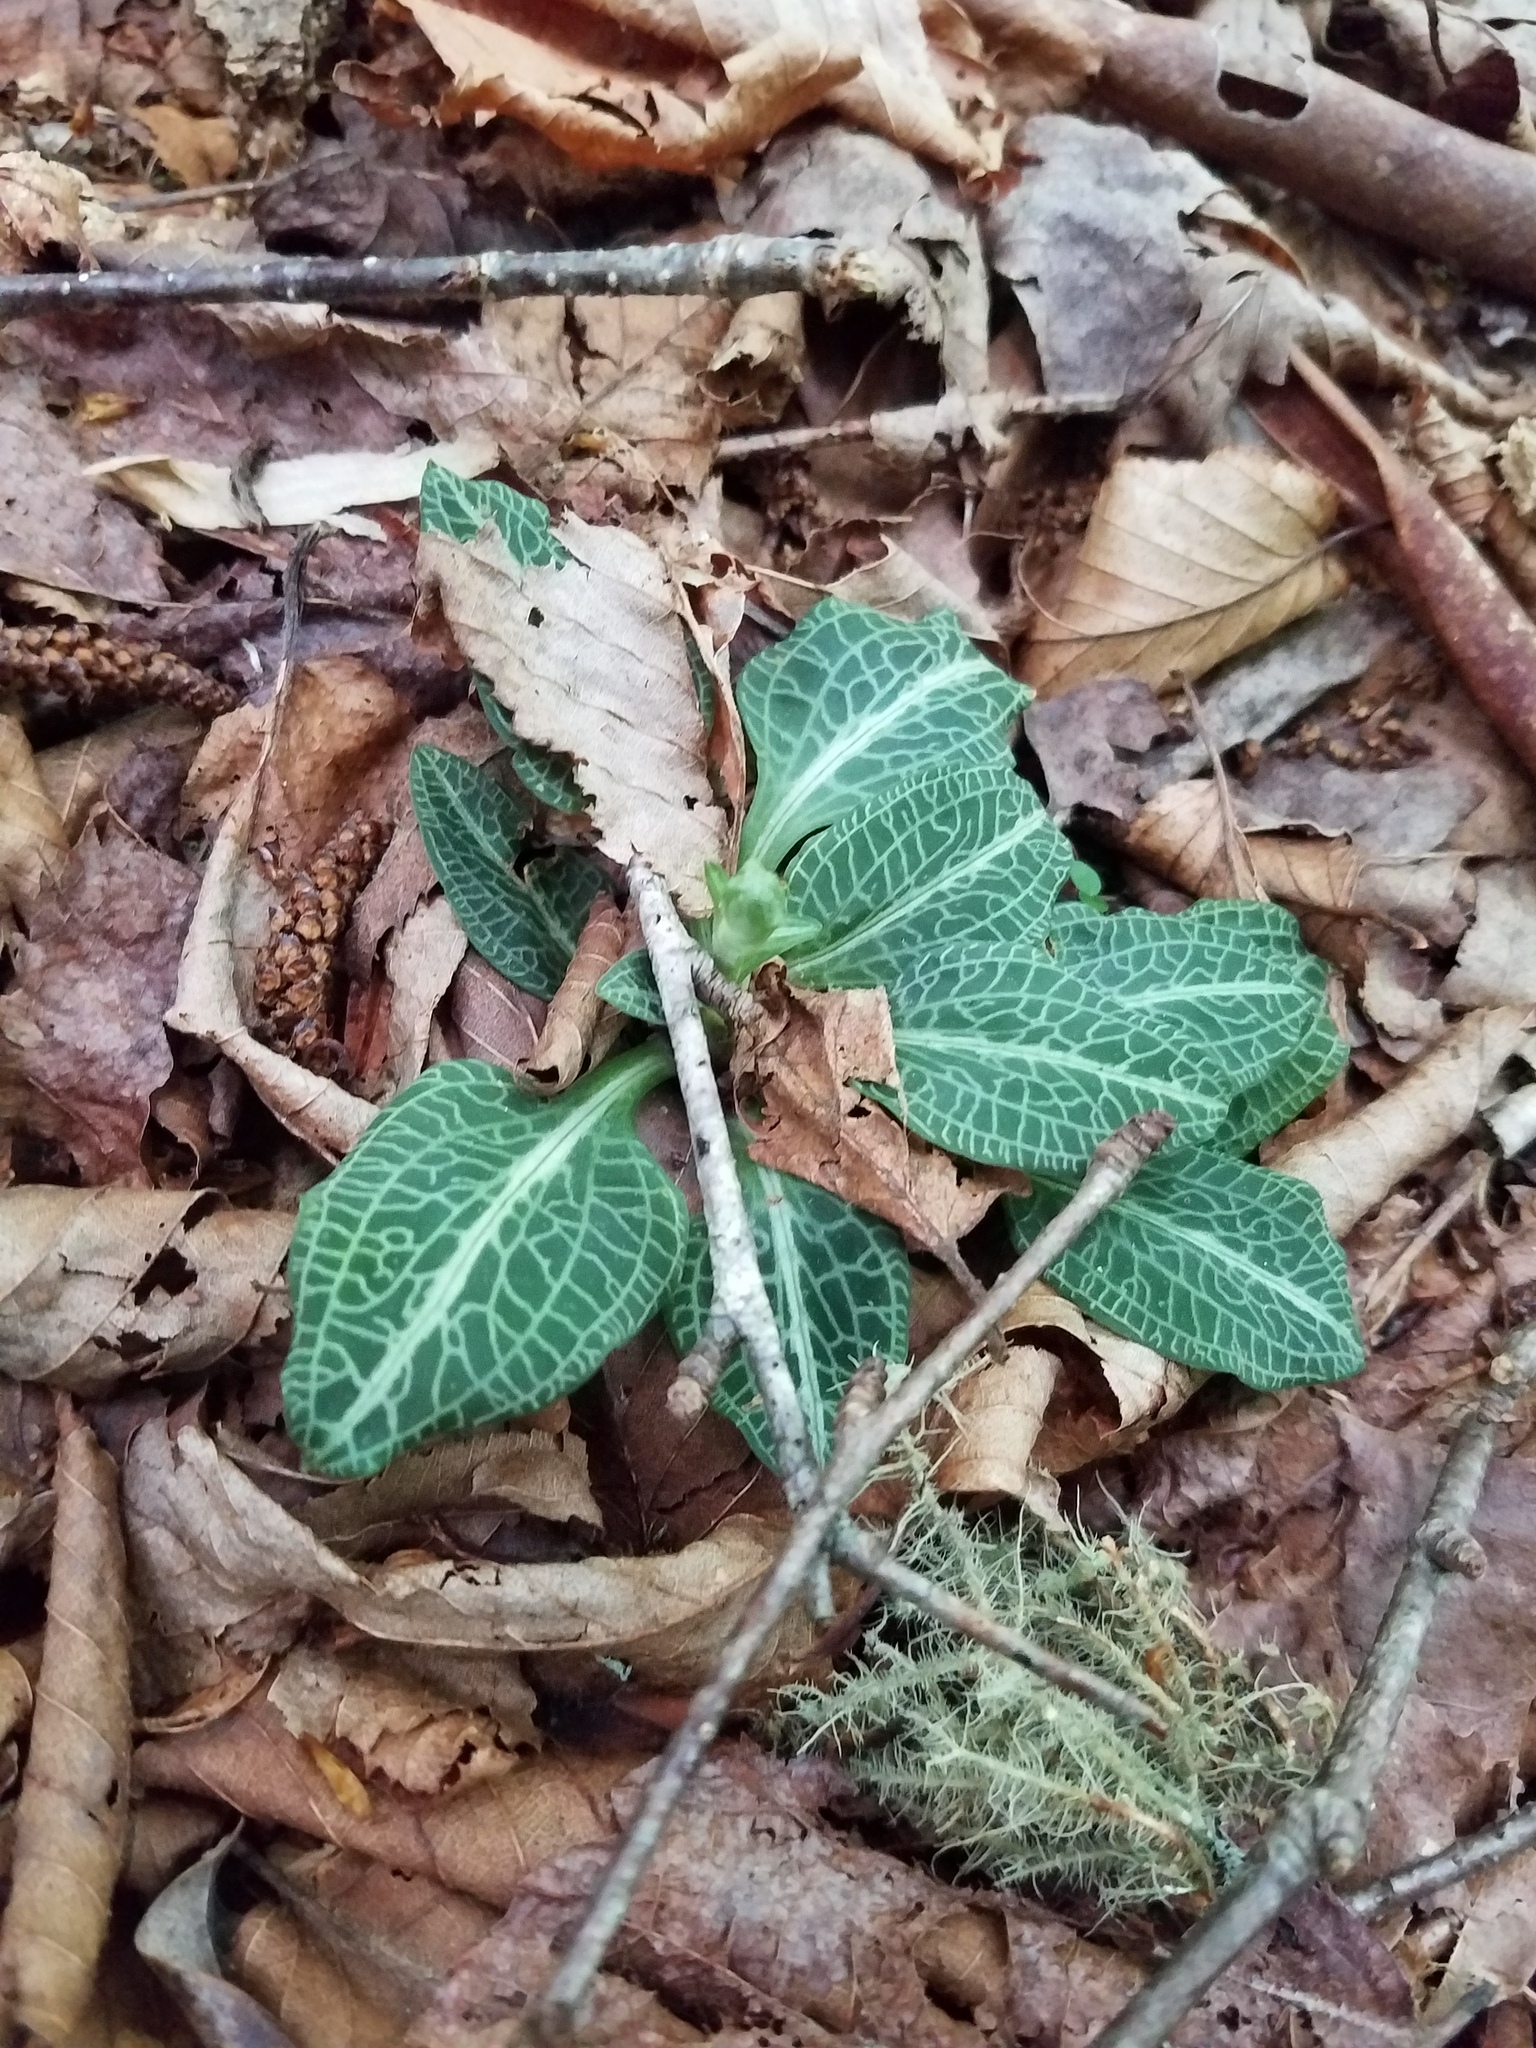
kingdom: Plantae
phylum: Tracheophyta
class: Liliopsida
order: Asparagales
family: Orchidaceae
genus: Goodyera
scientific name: Goodyera pubescens
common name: Downy rattlesnake-plantain
